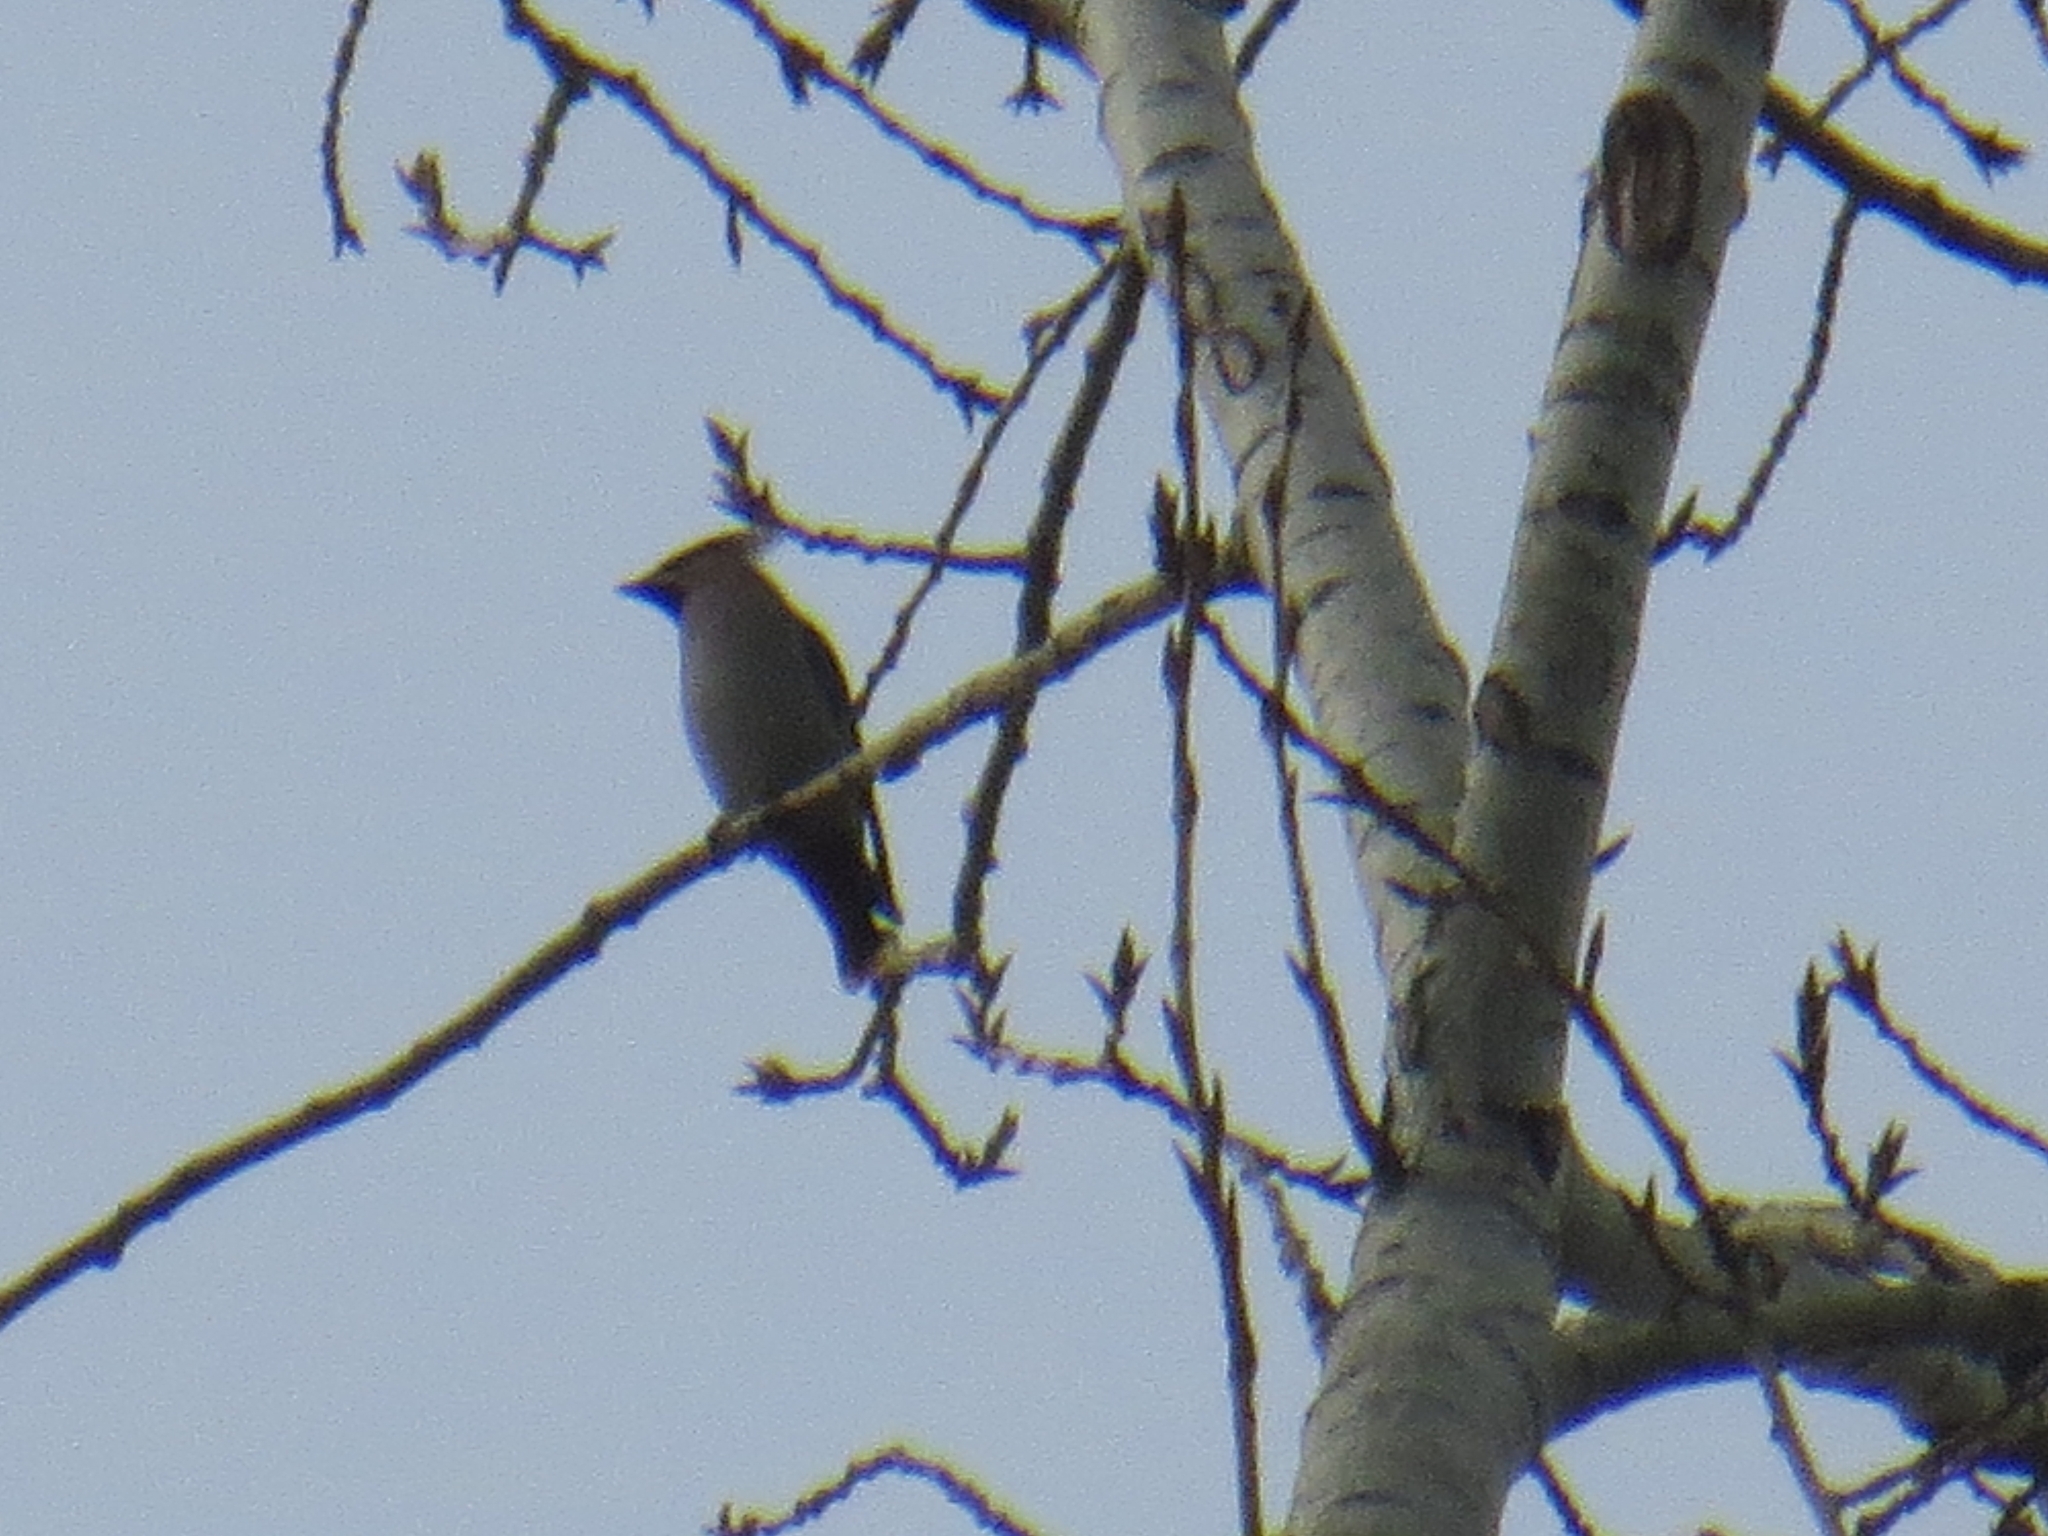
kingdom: Animalia
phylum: Chordata
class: Aves
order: Passeriformes
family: Bombycillidae
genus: Bombycilla
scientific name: Bombycilla garrulus
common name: Bohemian waxwing
